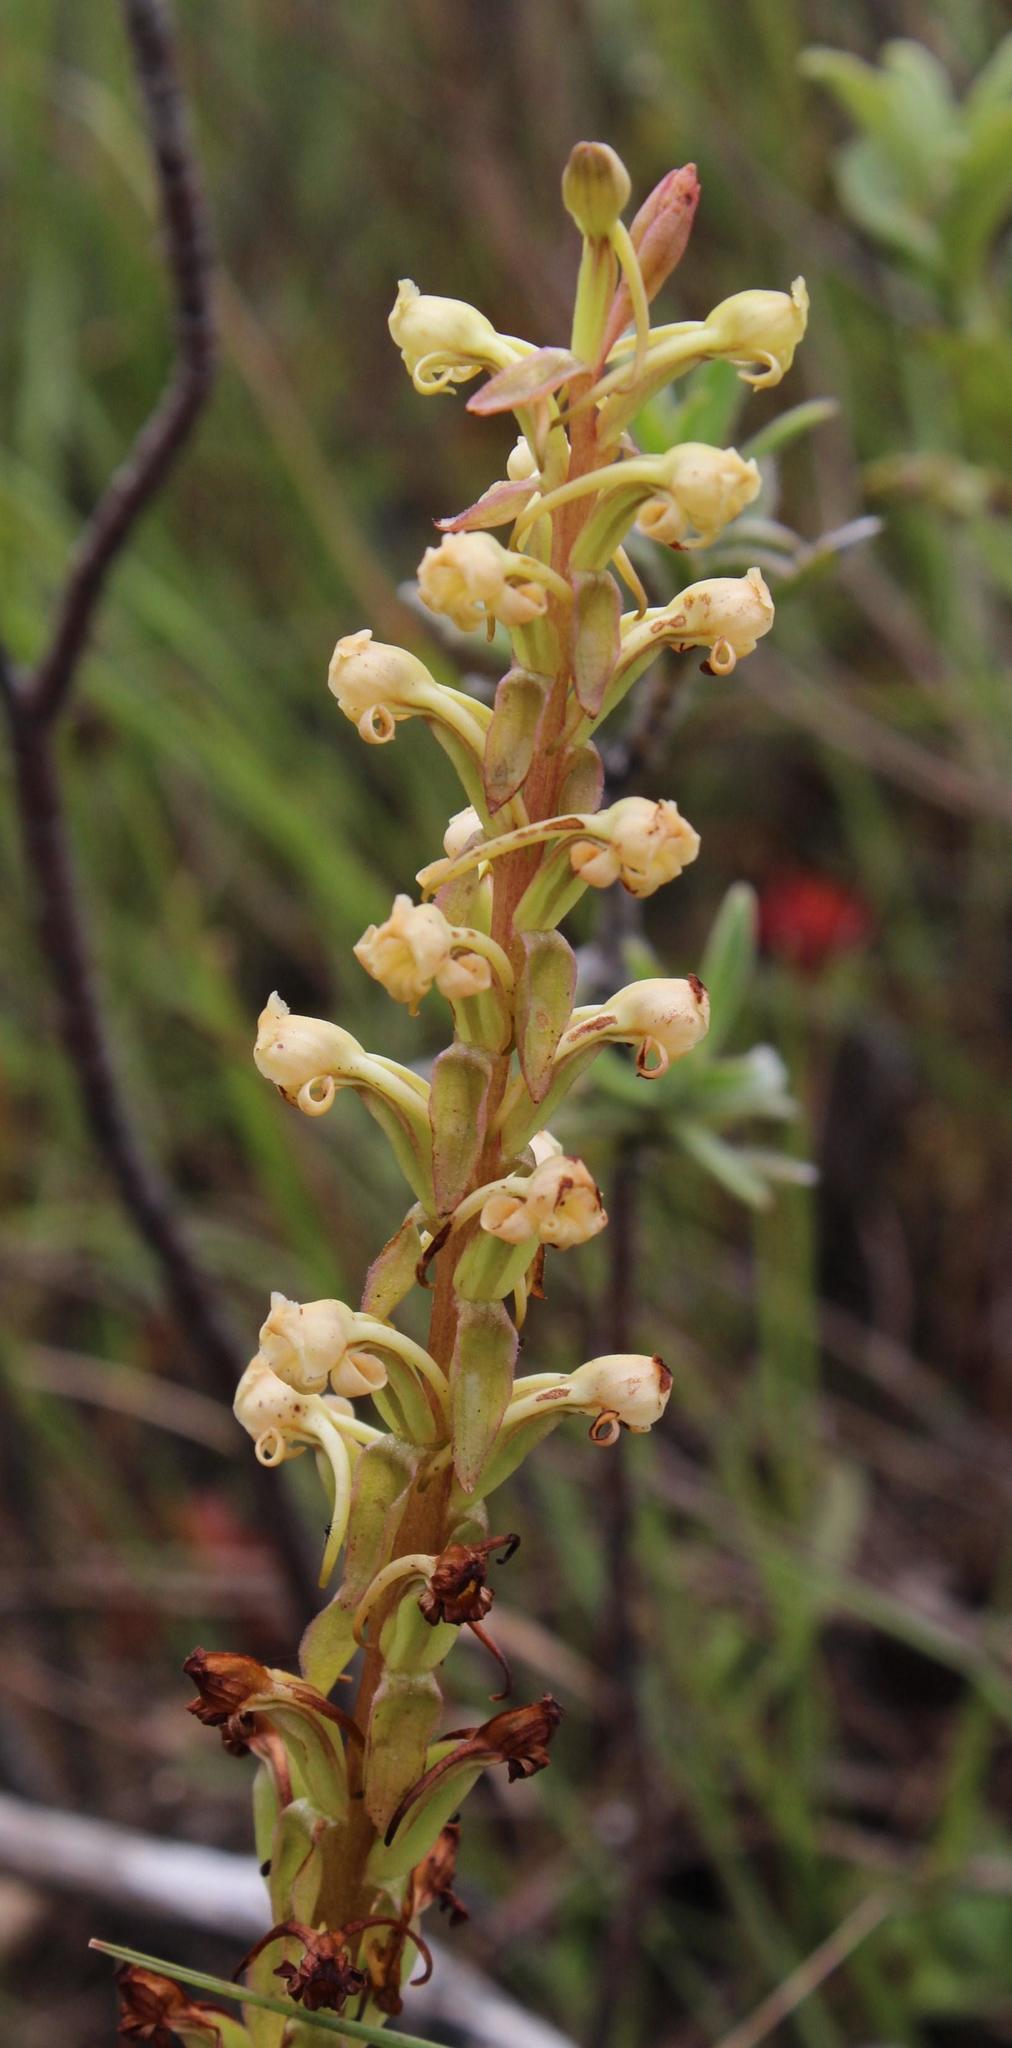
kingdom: Plantae
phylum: Tracheophyta
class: Liliopsida
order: Asparagales
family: Orchidaceae
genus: Satyrium
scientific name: Satyrium humile
